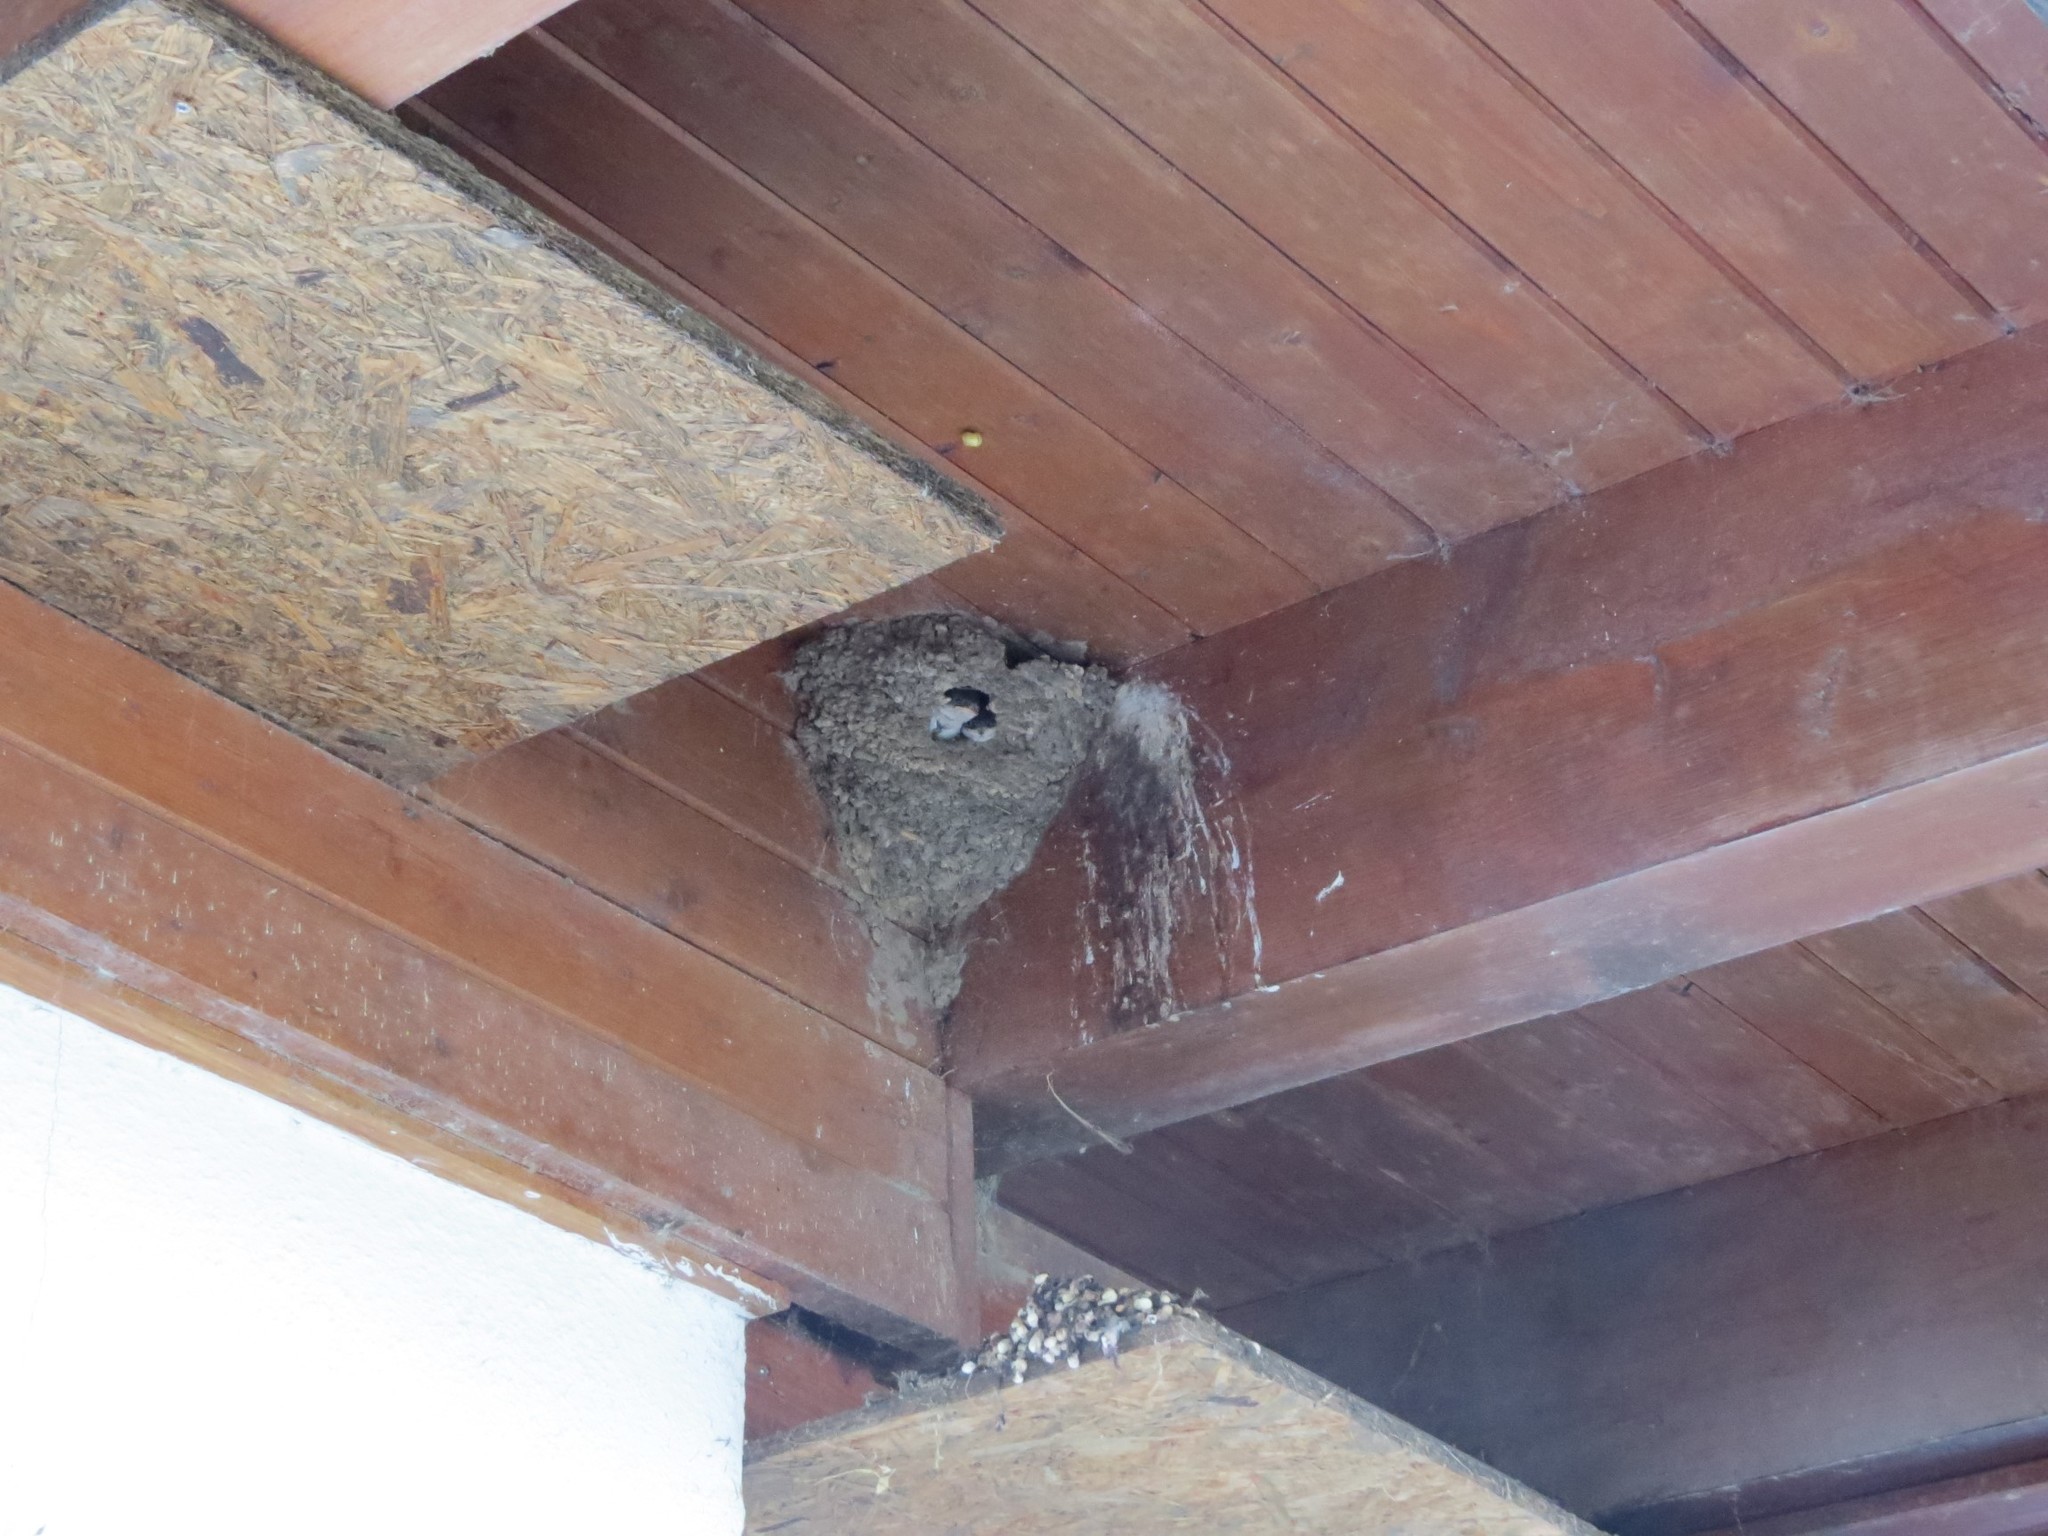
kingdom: Animalia
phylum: Chordata
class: Aves
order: Passeriformes
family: Hirundinidae
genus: Delichon
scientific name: Delichon urbicum
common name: Common house martin
